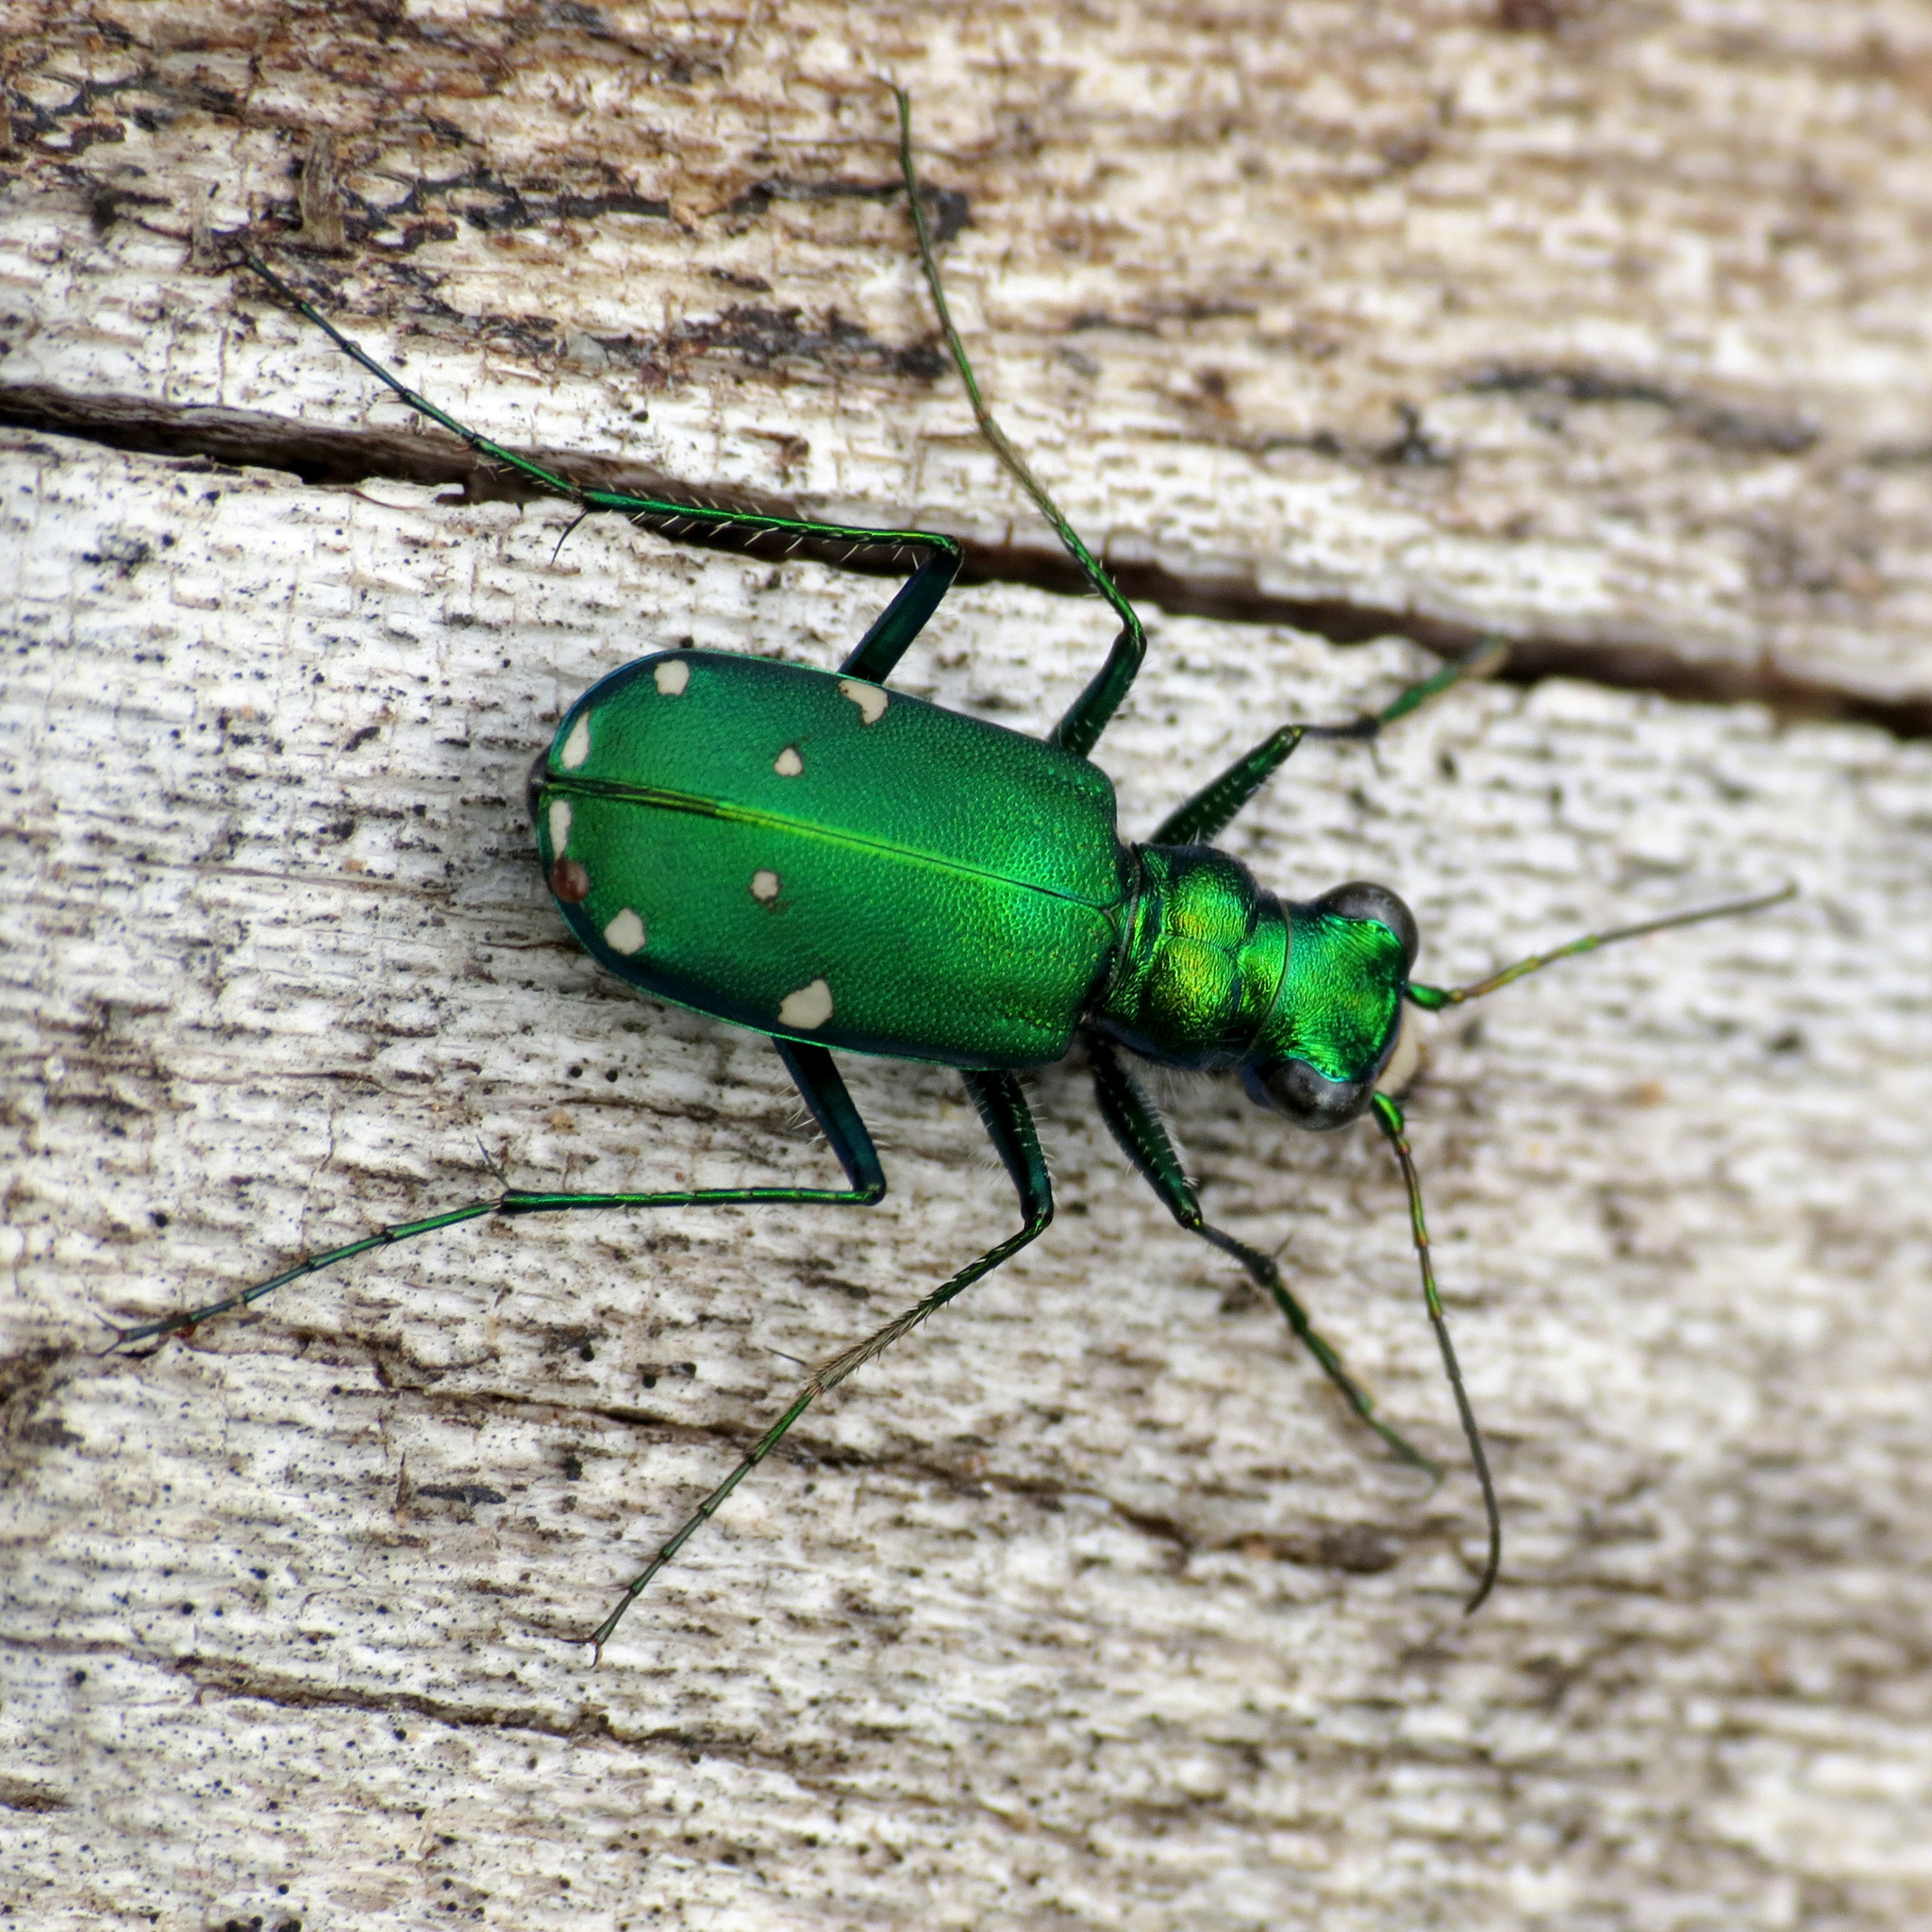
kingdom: Animalia
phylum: Arthropoda
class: Insecta
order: Coleoptera
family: Carabidae
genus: Cicindela
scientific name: Cicindela sexguttata
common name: Six-spotted tiger beetle
